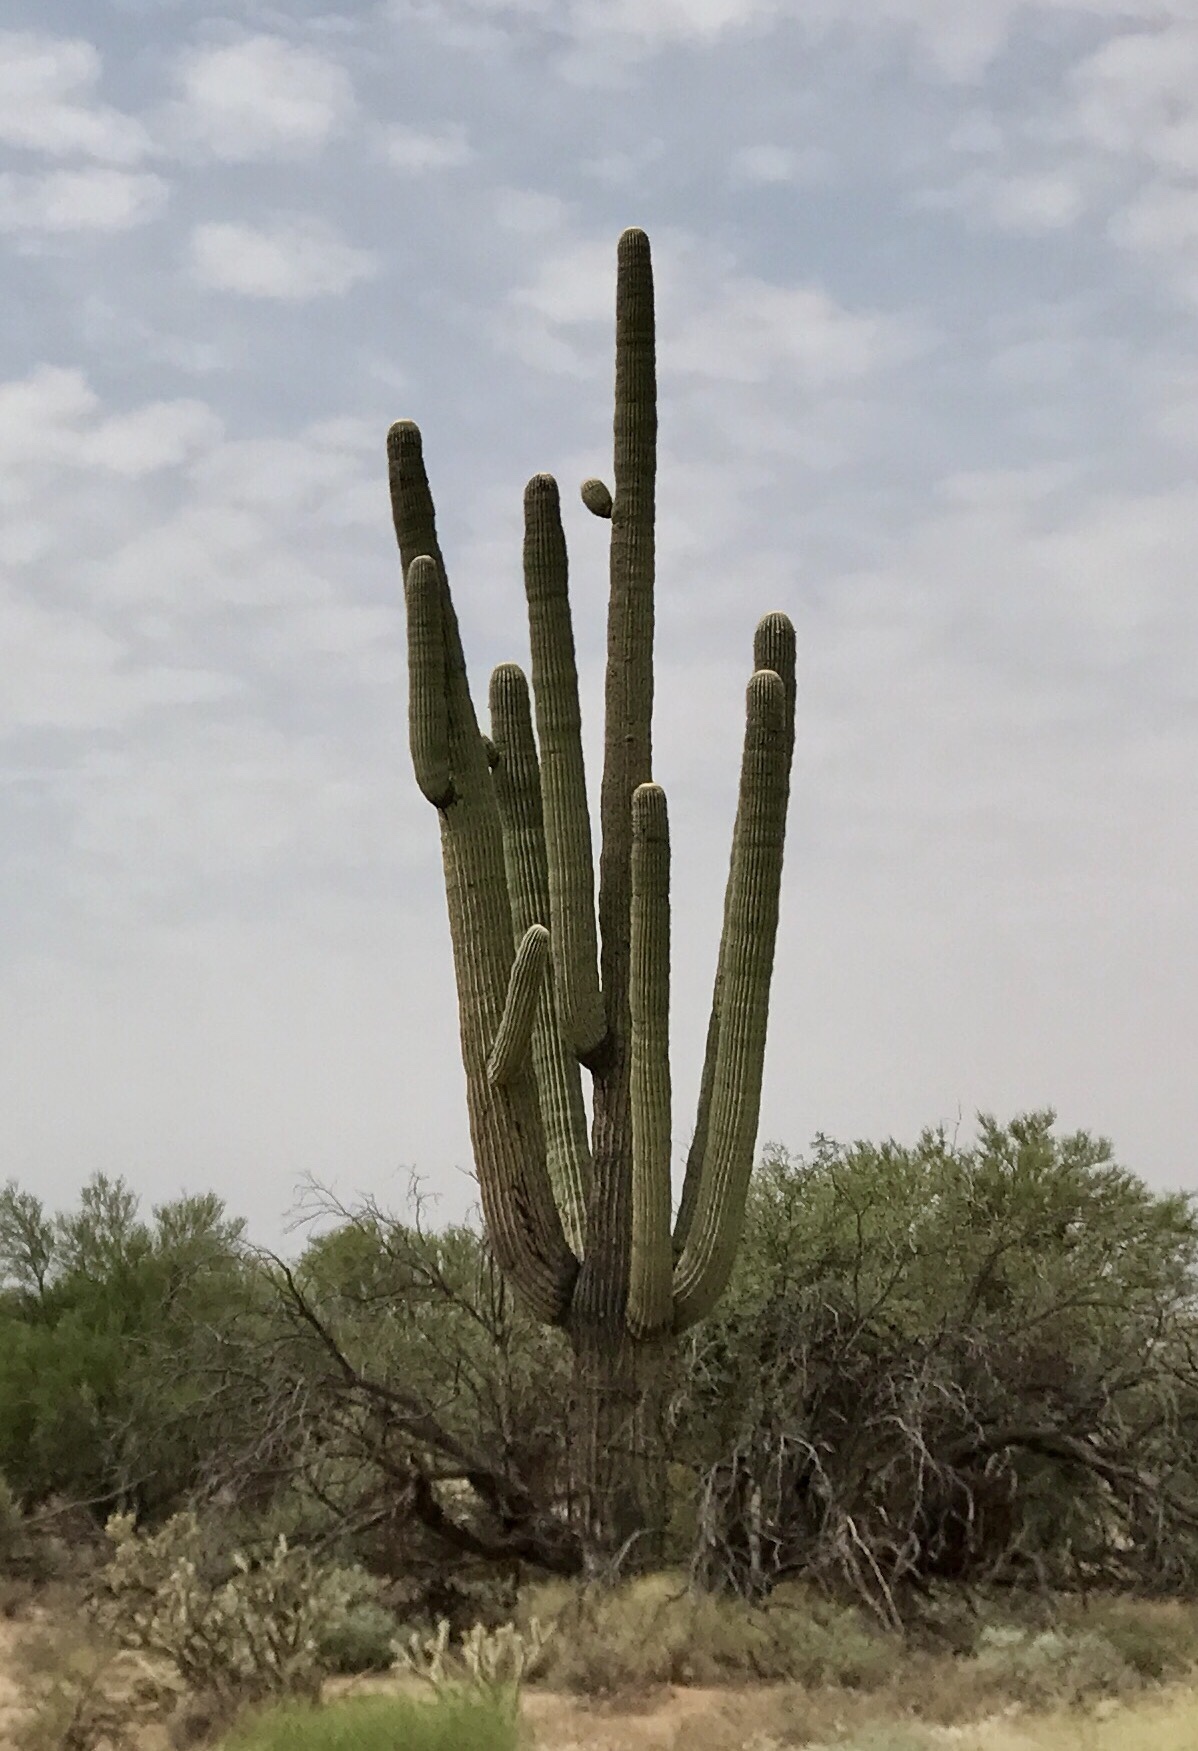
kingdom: Plantae
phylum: Tracheophyta
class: Magnoliopsida
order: Caryophyllales
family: Cactaceae
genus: Carnegiea
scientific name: Carnegiea gigantea
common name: Saguaro
